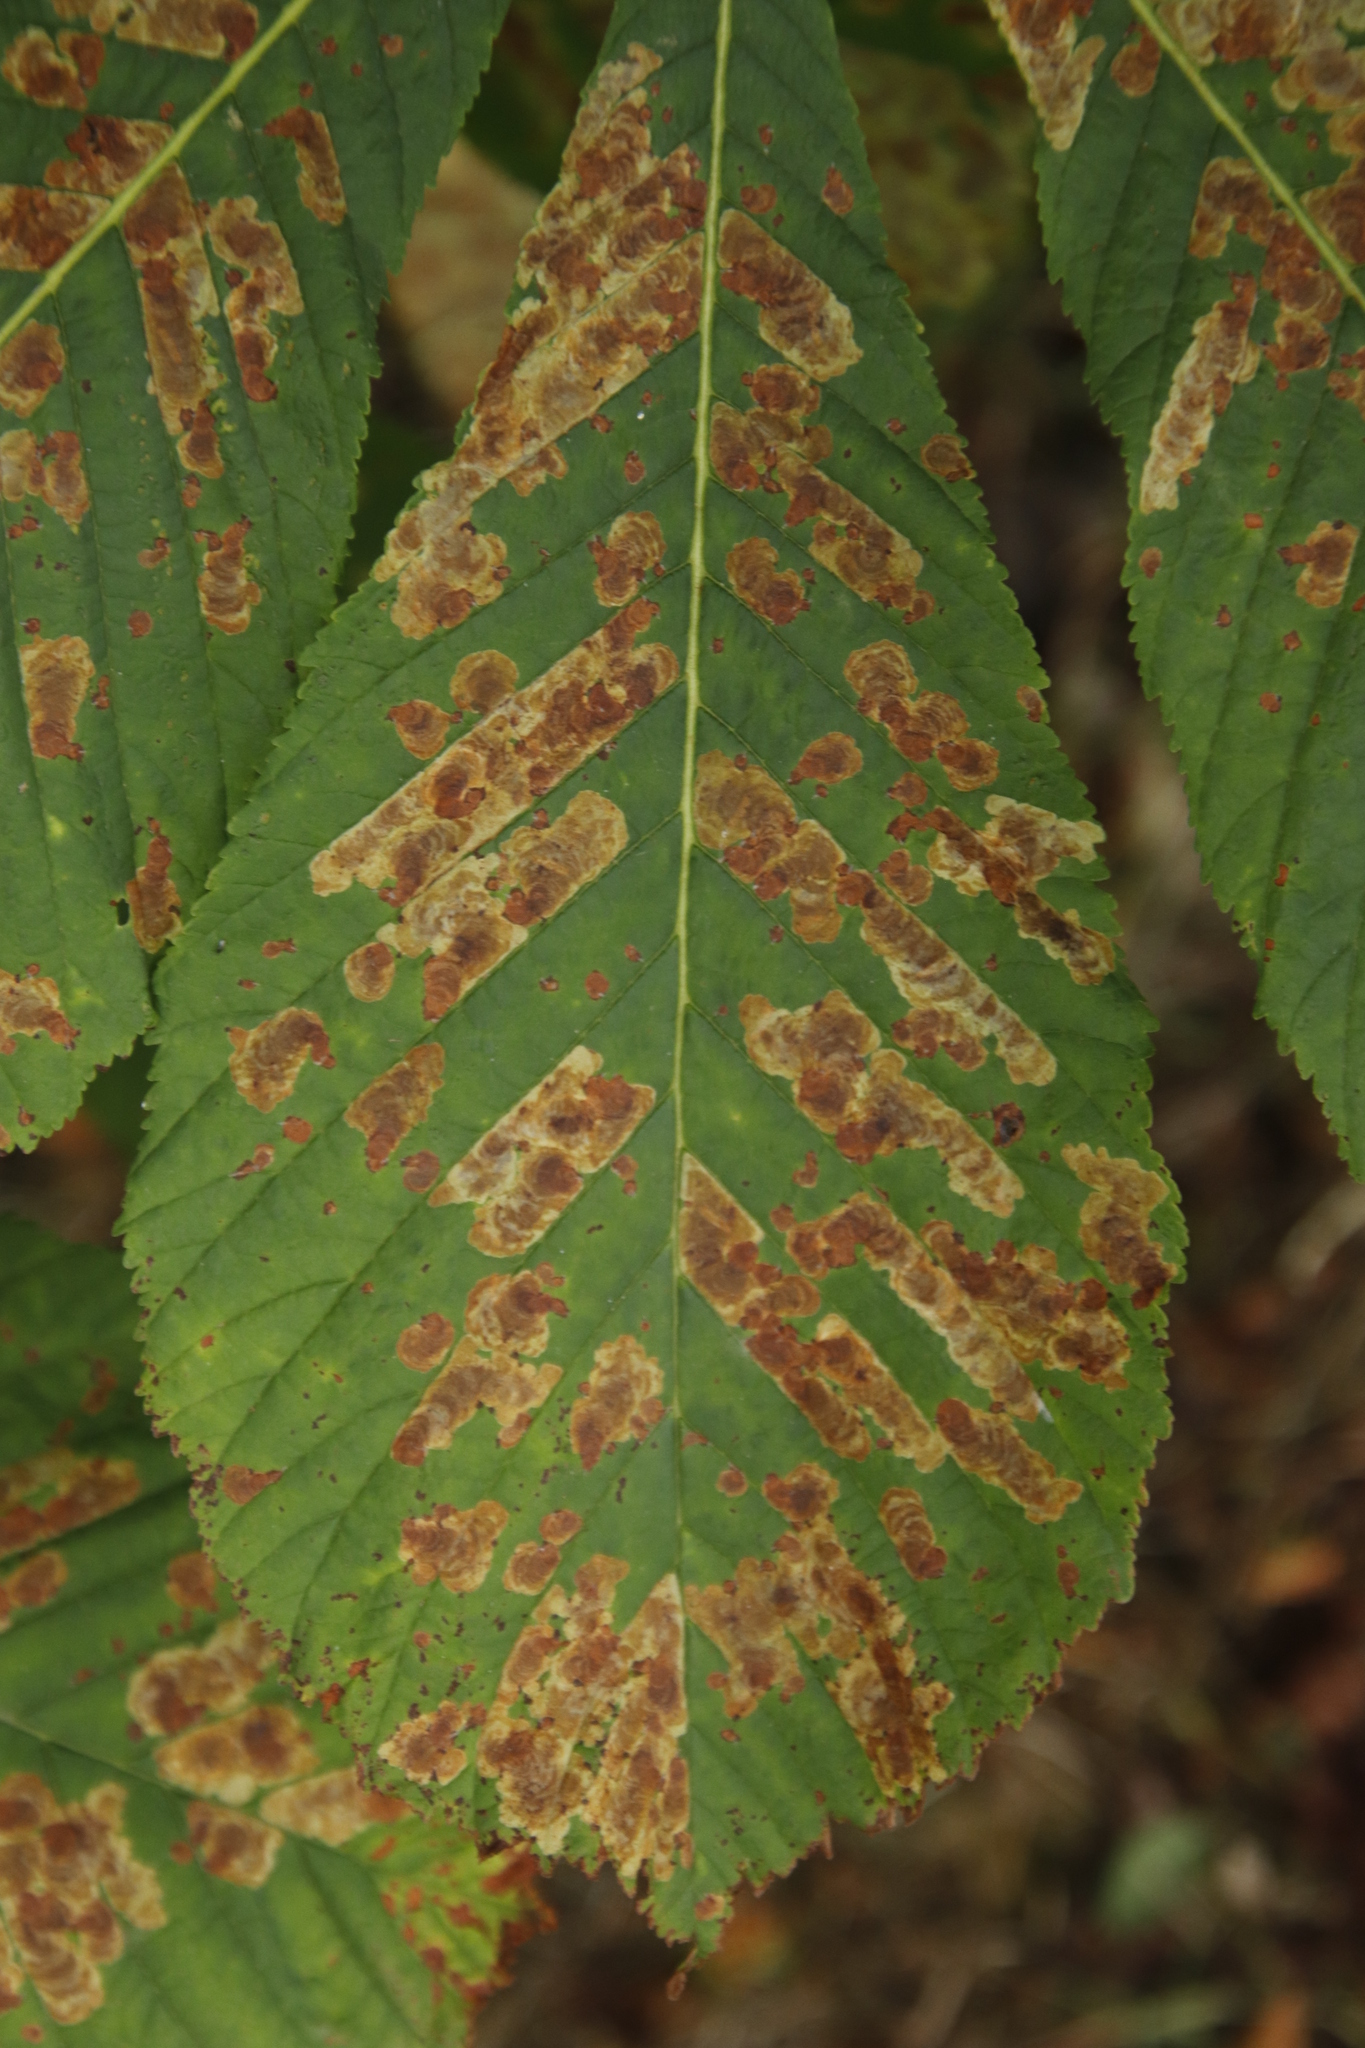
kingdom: Animalia
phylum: Arthropoda
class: Insecta
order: Lepidoptera
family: Gracillariidae
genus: Cameraria
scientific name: Cameraria ohridella
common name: Horse-chestnut leaf-miner
